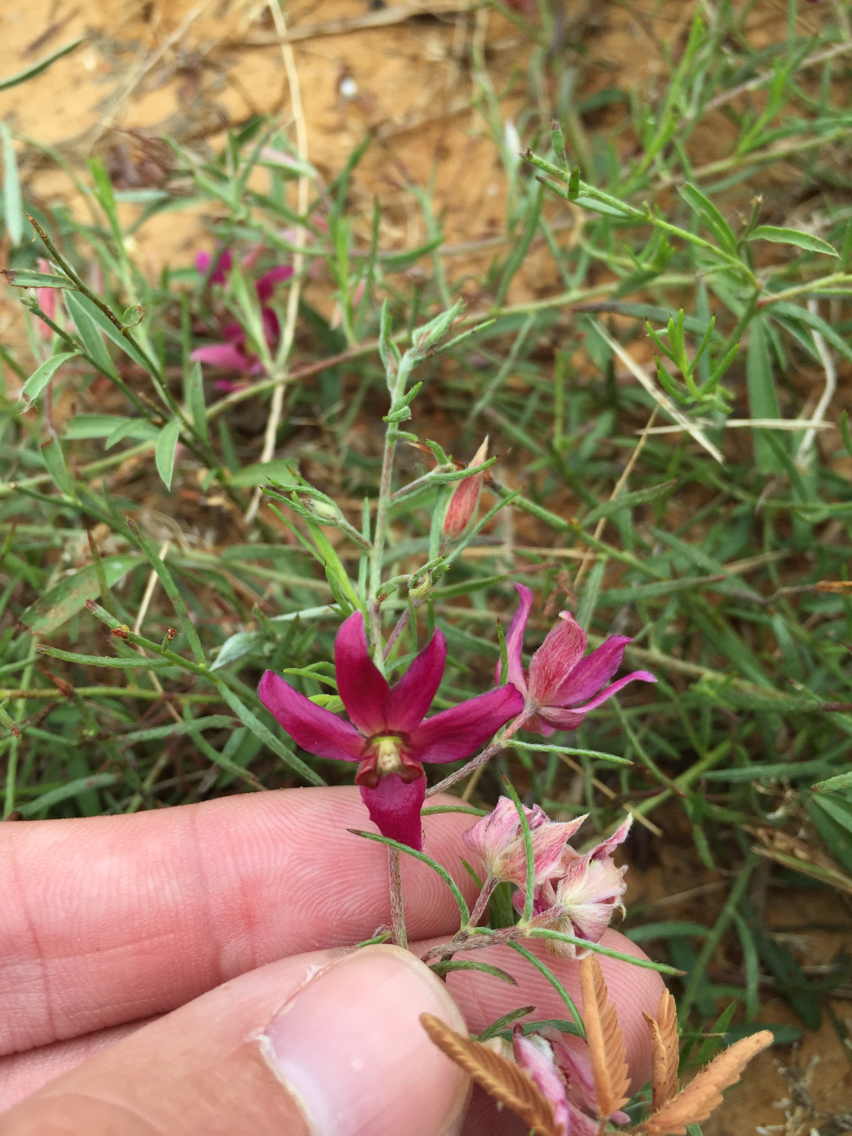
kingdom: Plantae
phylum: Tracheophyta
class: Magnoliopsida
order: Zygophyllales
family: Krameriaceae
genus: Krameria
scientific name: Krameria lanceolata
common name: Ratany
